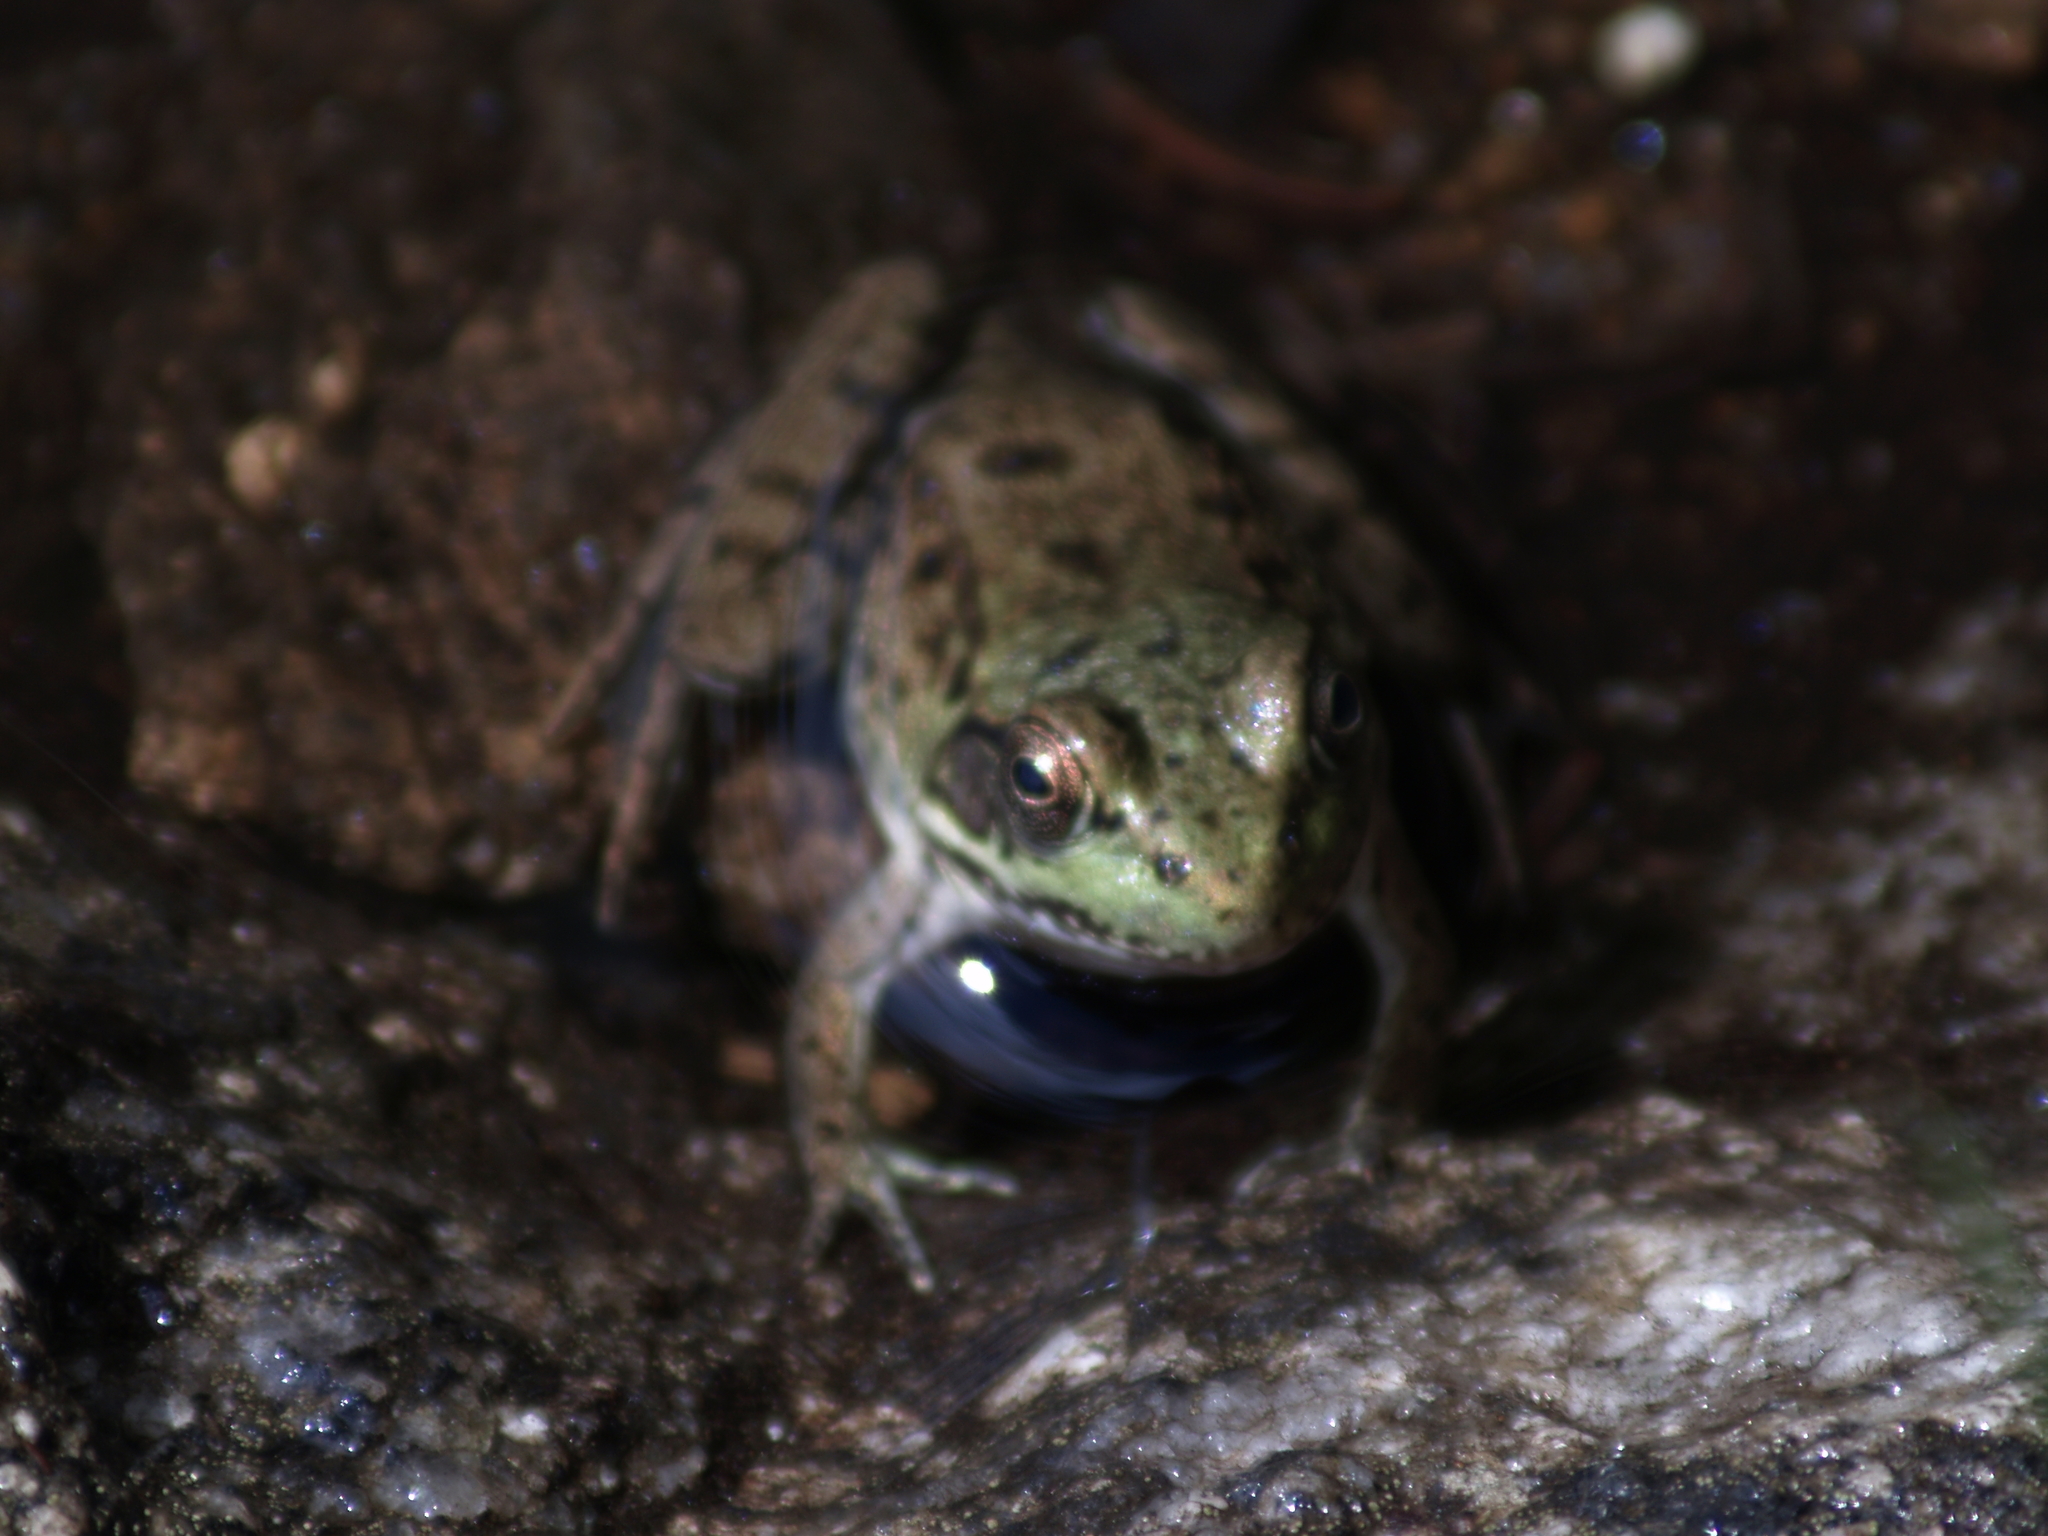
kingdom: Animalia
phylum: Chordata
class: Amphibia
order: Anura
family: Ranidae
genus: Lithobates
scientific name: Lithobates clamitans
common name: Green frog
